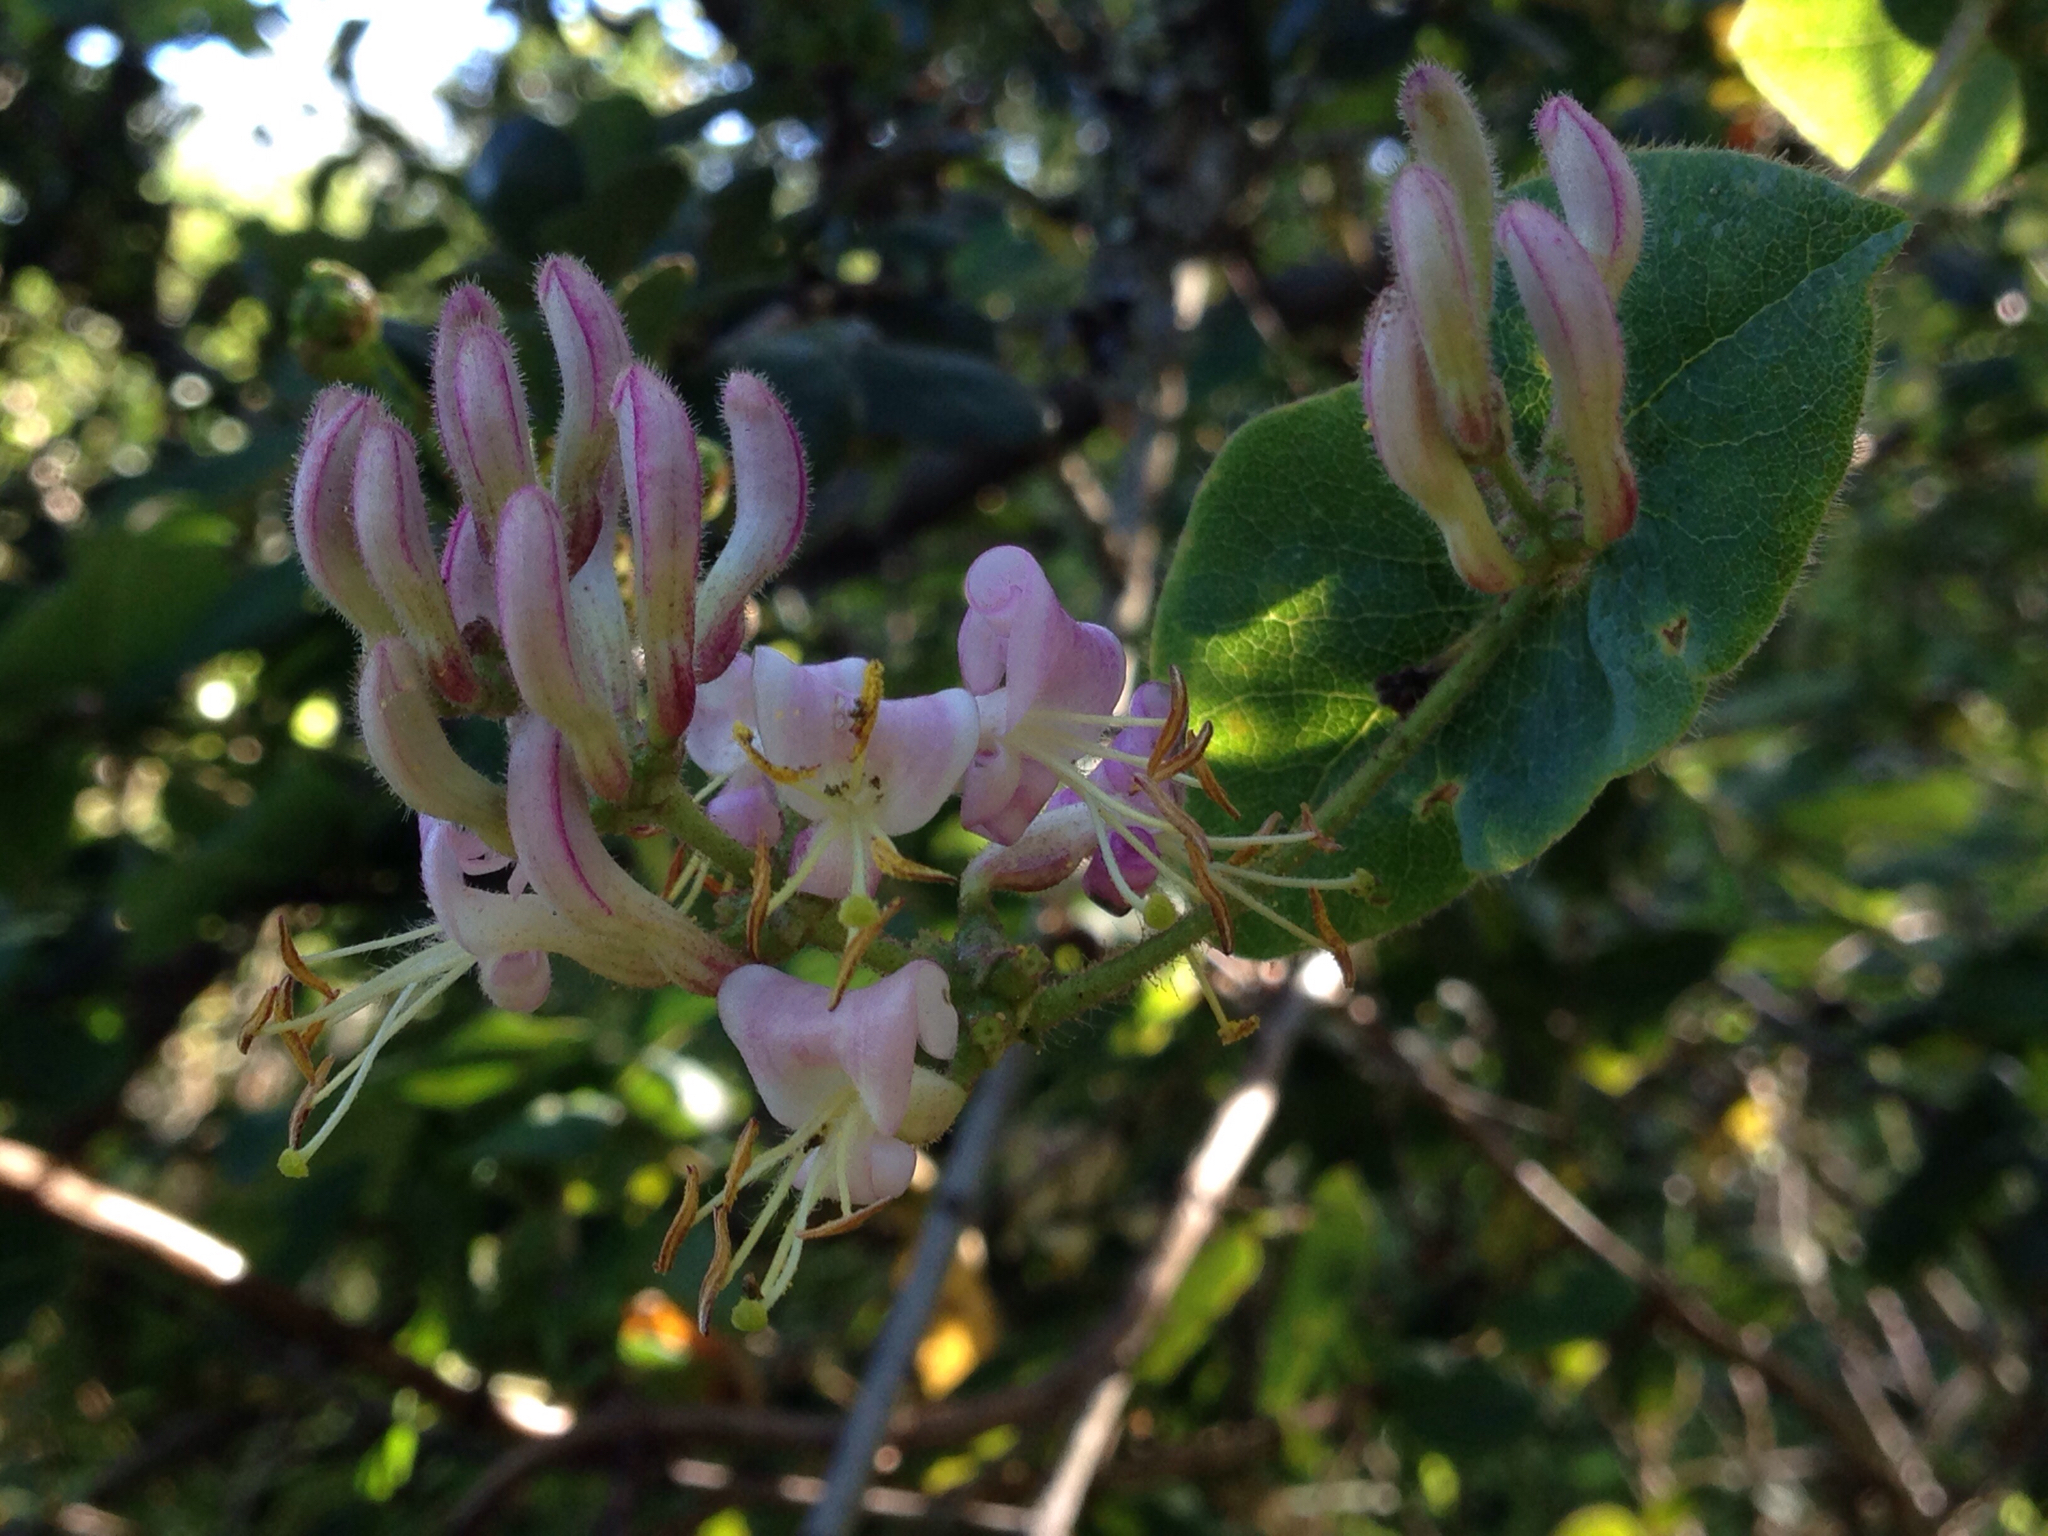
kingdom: Plantae
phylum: Tracheophyta
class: Magnoliopsida
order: Dipsacales
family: Caprifoliaceae
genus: Lonicera
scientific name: Lonicera hispidula
